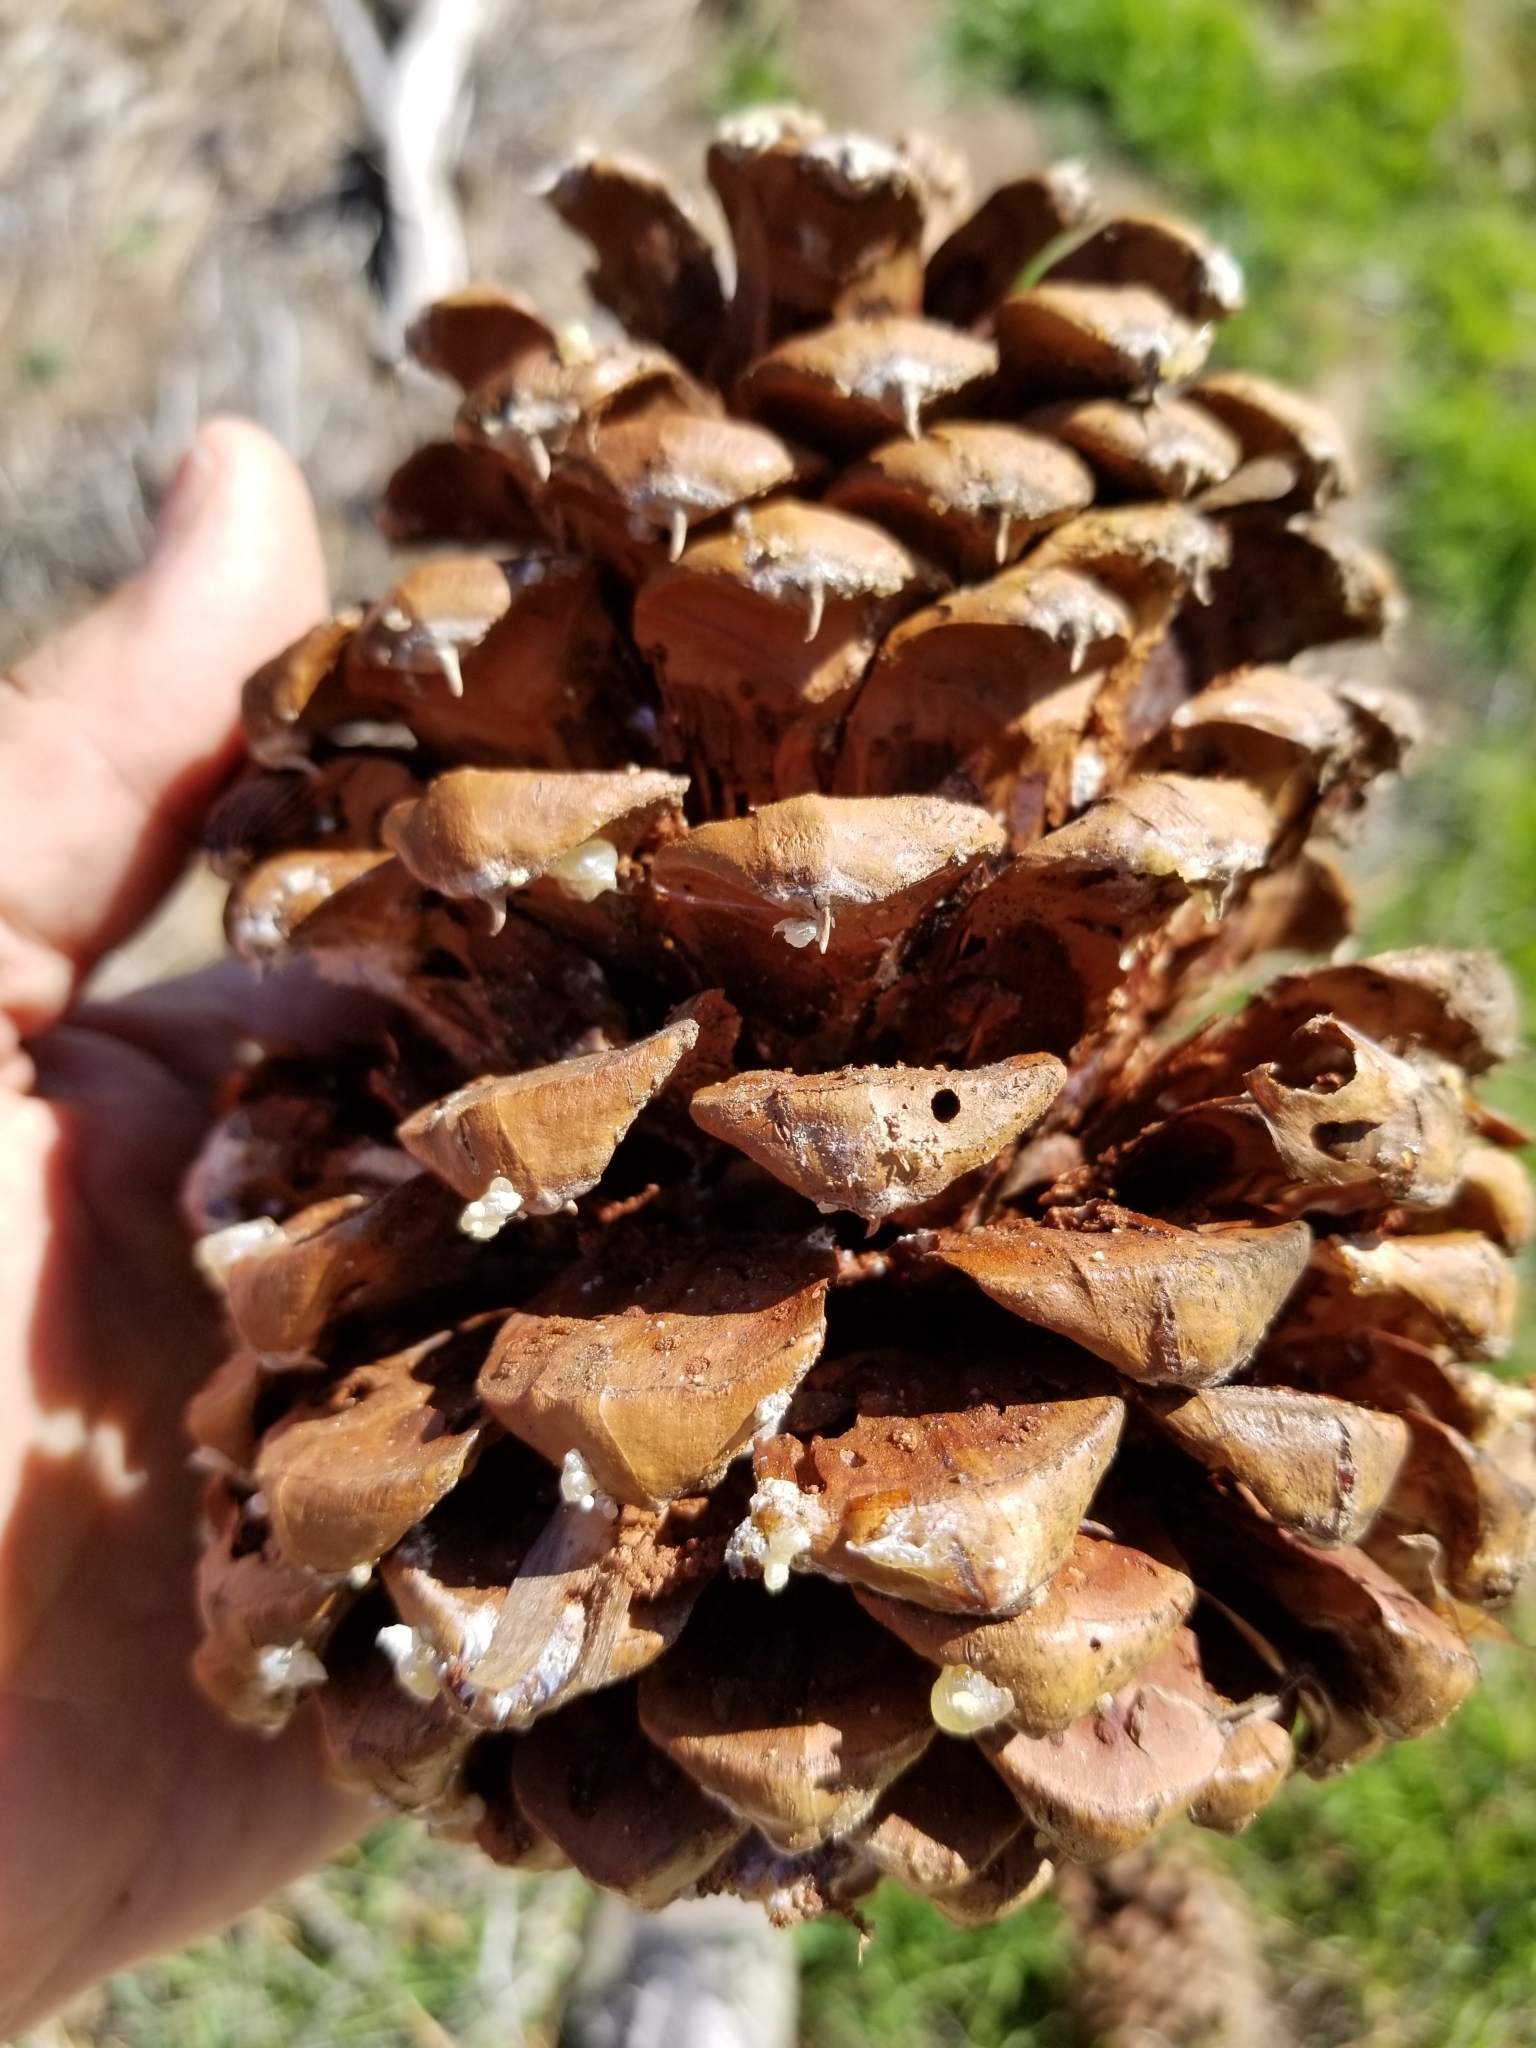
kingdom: Plantae
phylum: Tracheophyta
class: Pinopsida
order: Pinales
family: Pinaceae
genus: Pinus
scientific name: Pinus jeffreyi
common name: Jeffrey pine
